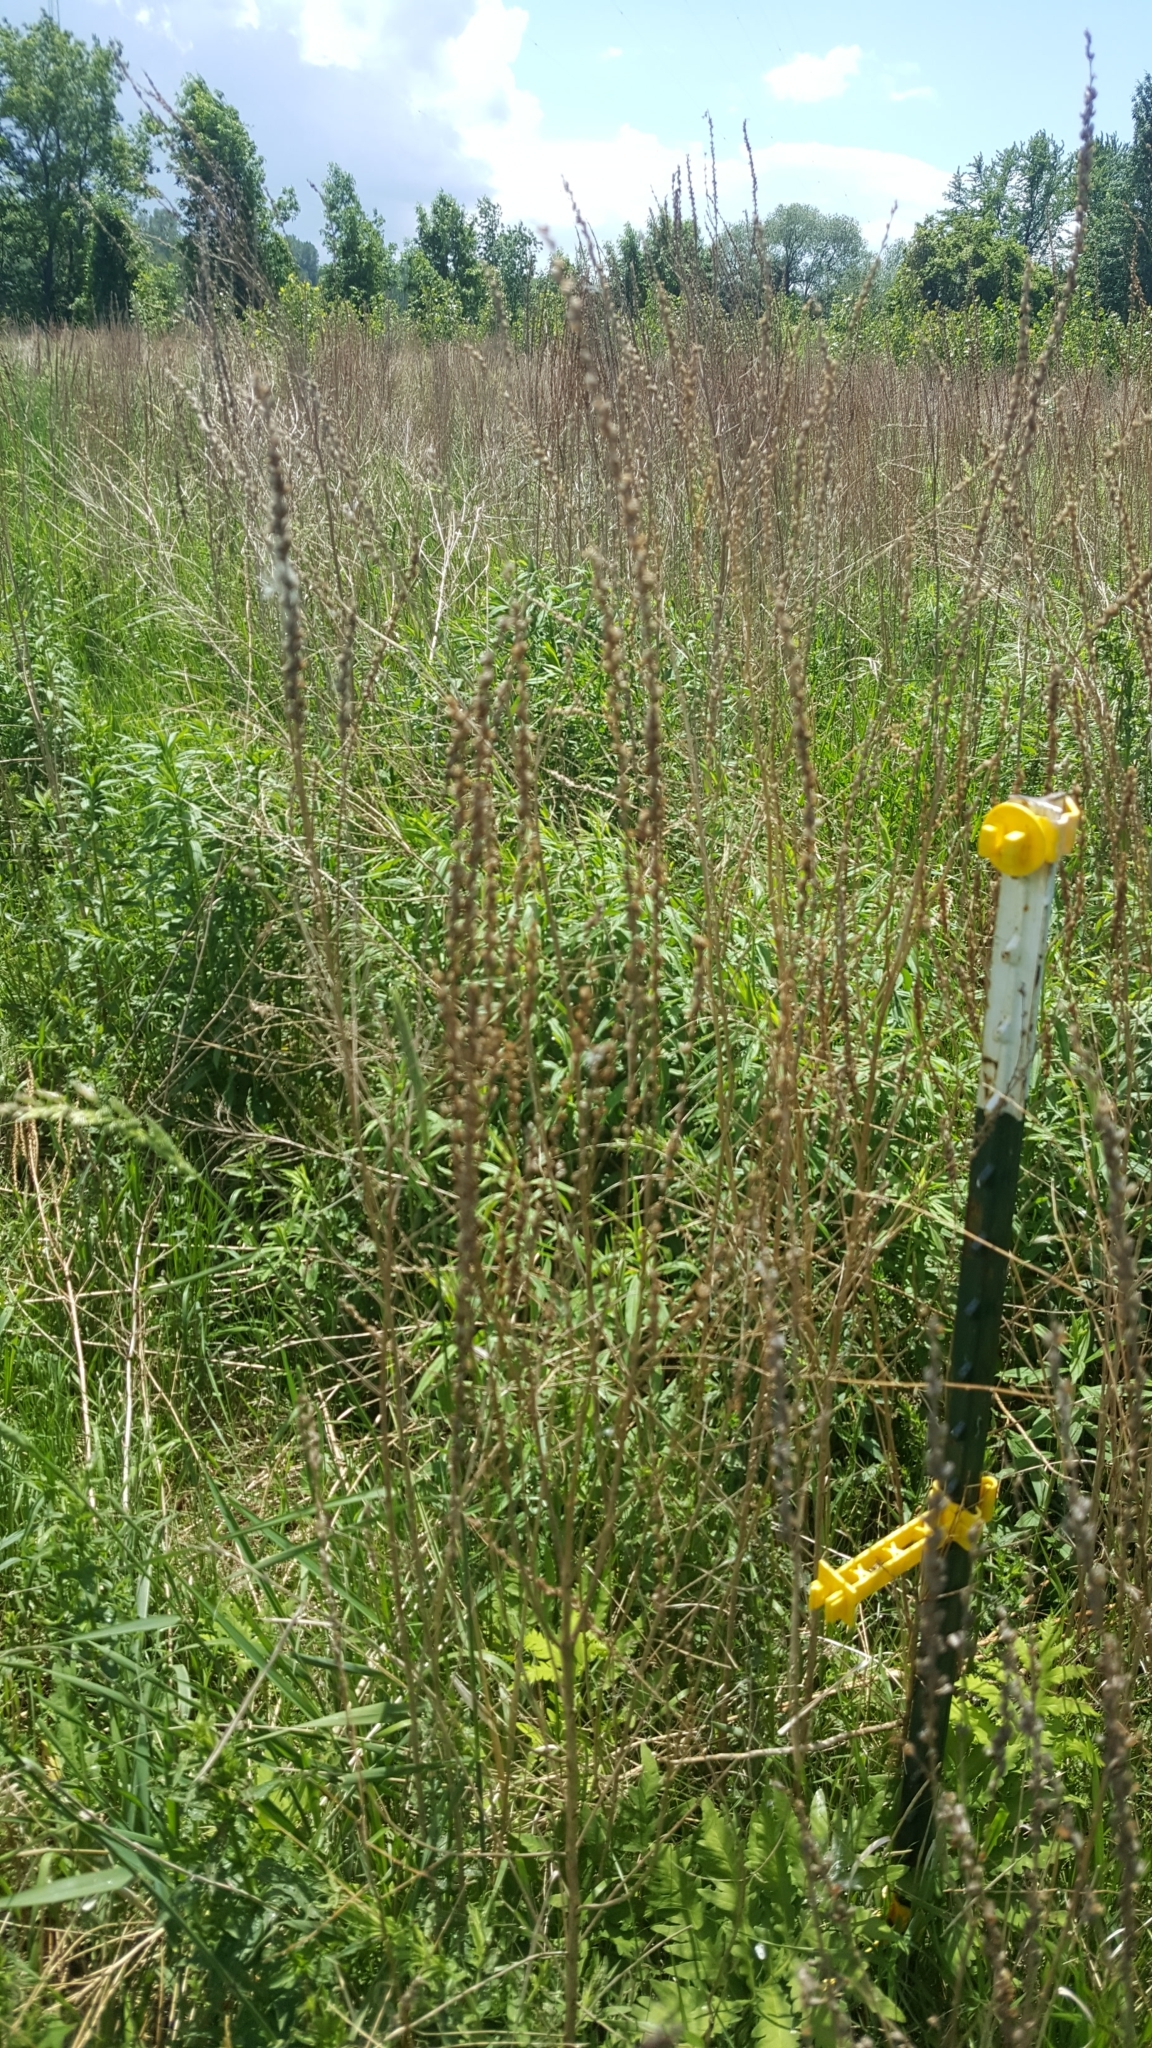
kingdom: Plantae
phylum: Tracheophyta
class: Magnoliopsida
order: Myrtales
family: Lythraceae
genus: Lythrum
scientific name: Lythrum salicaria
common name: Purple loosestrife
